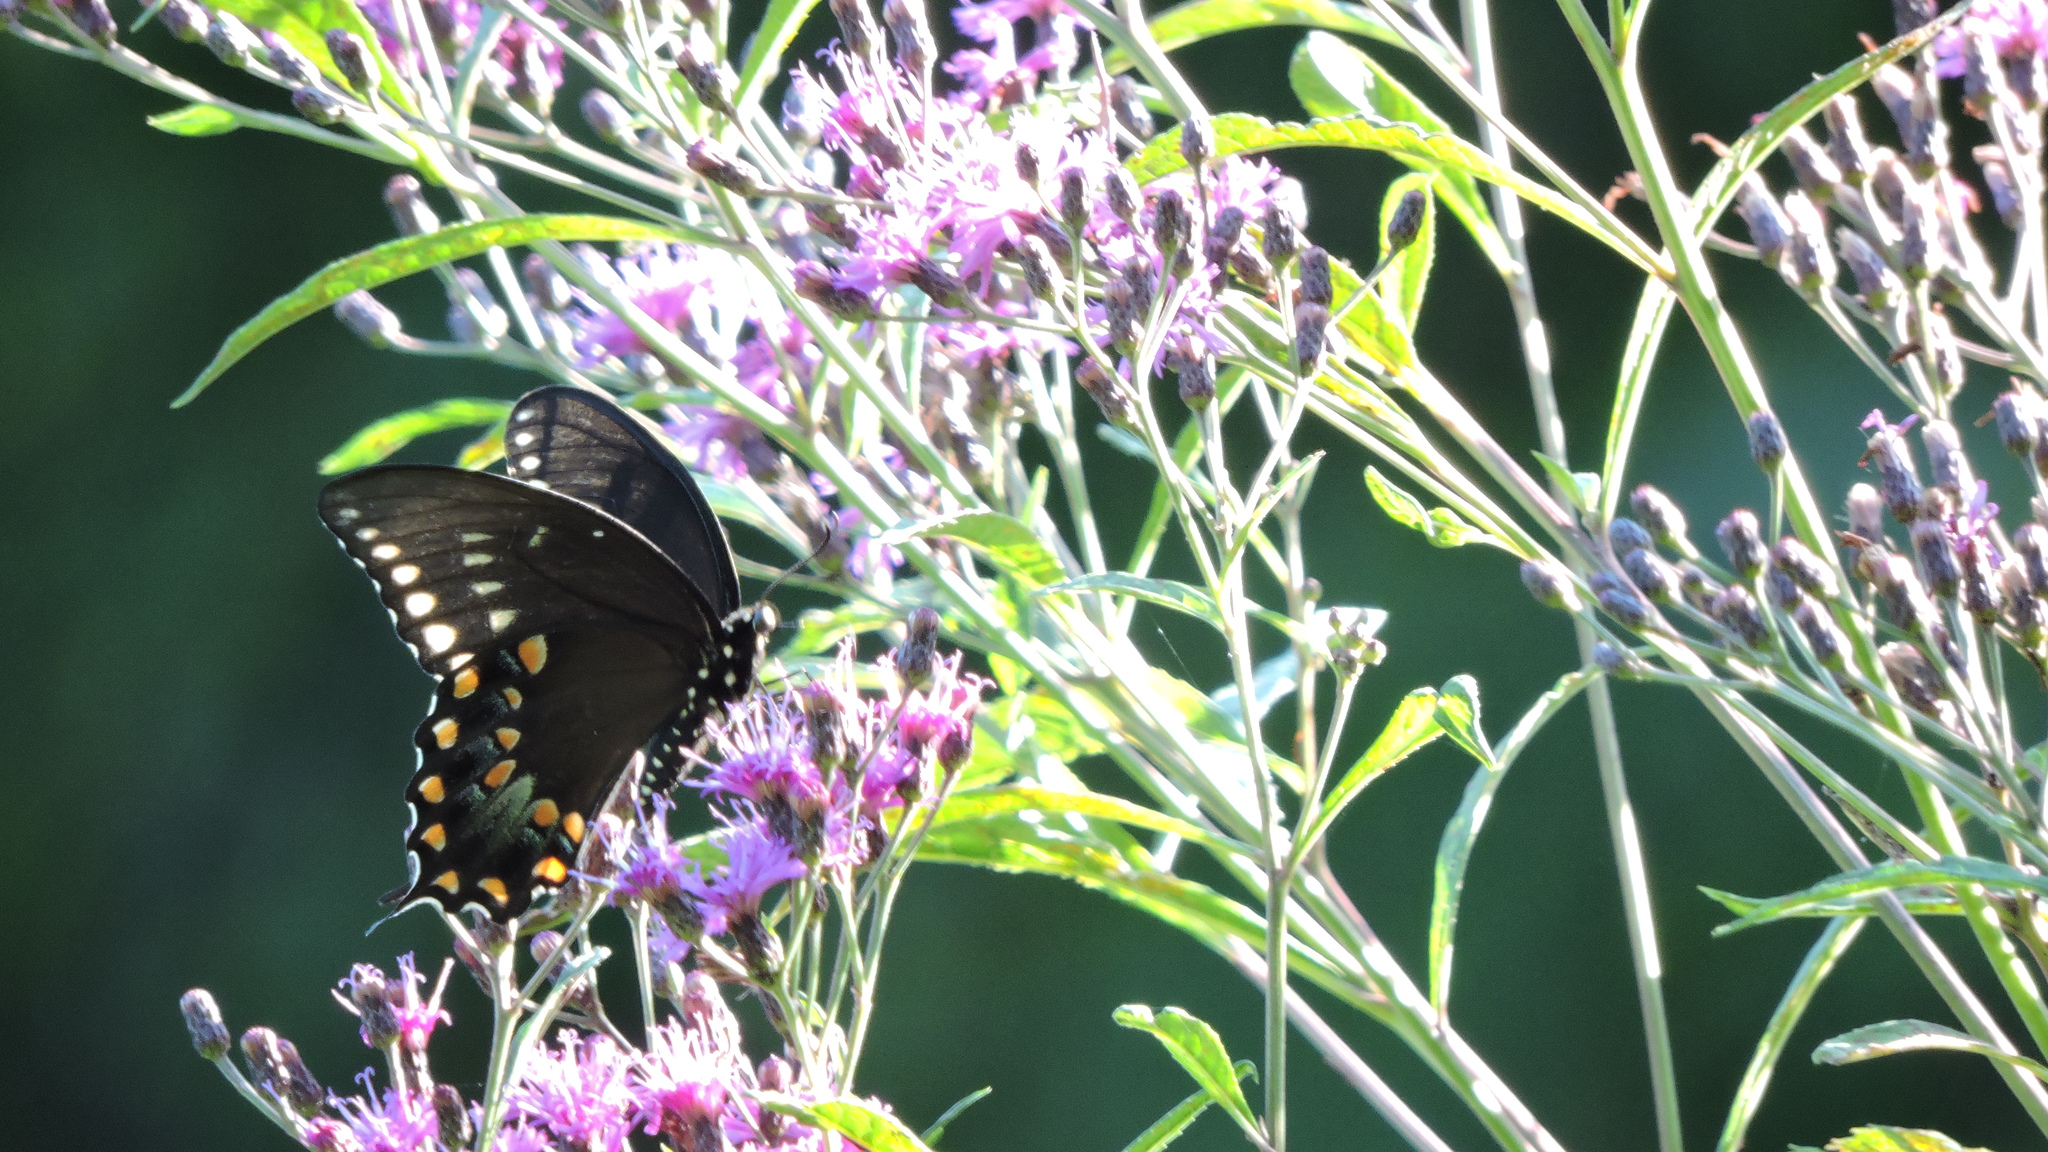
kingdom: Animalia
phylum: Arthropoda
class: Insecta
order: Lepidoptera
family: Papilionidae
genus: Papilio
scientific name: Papilio troilus
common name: Spicebush swallowtail
